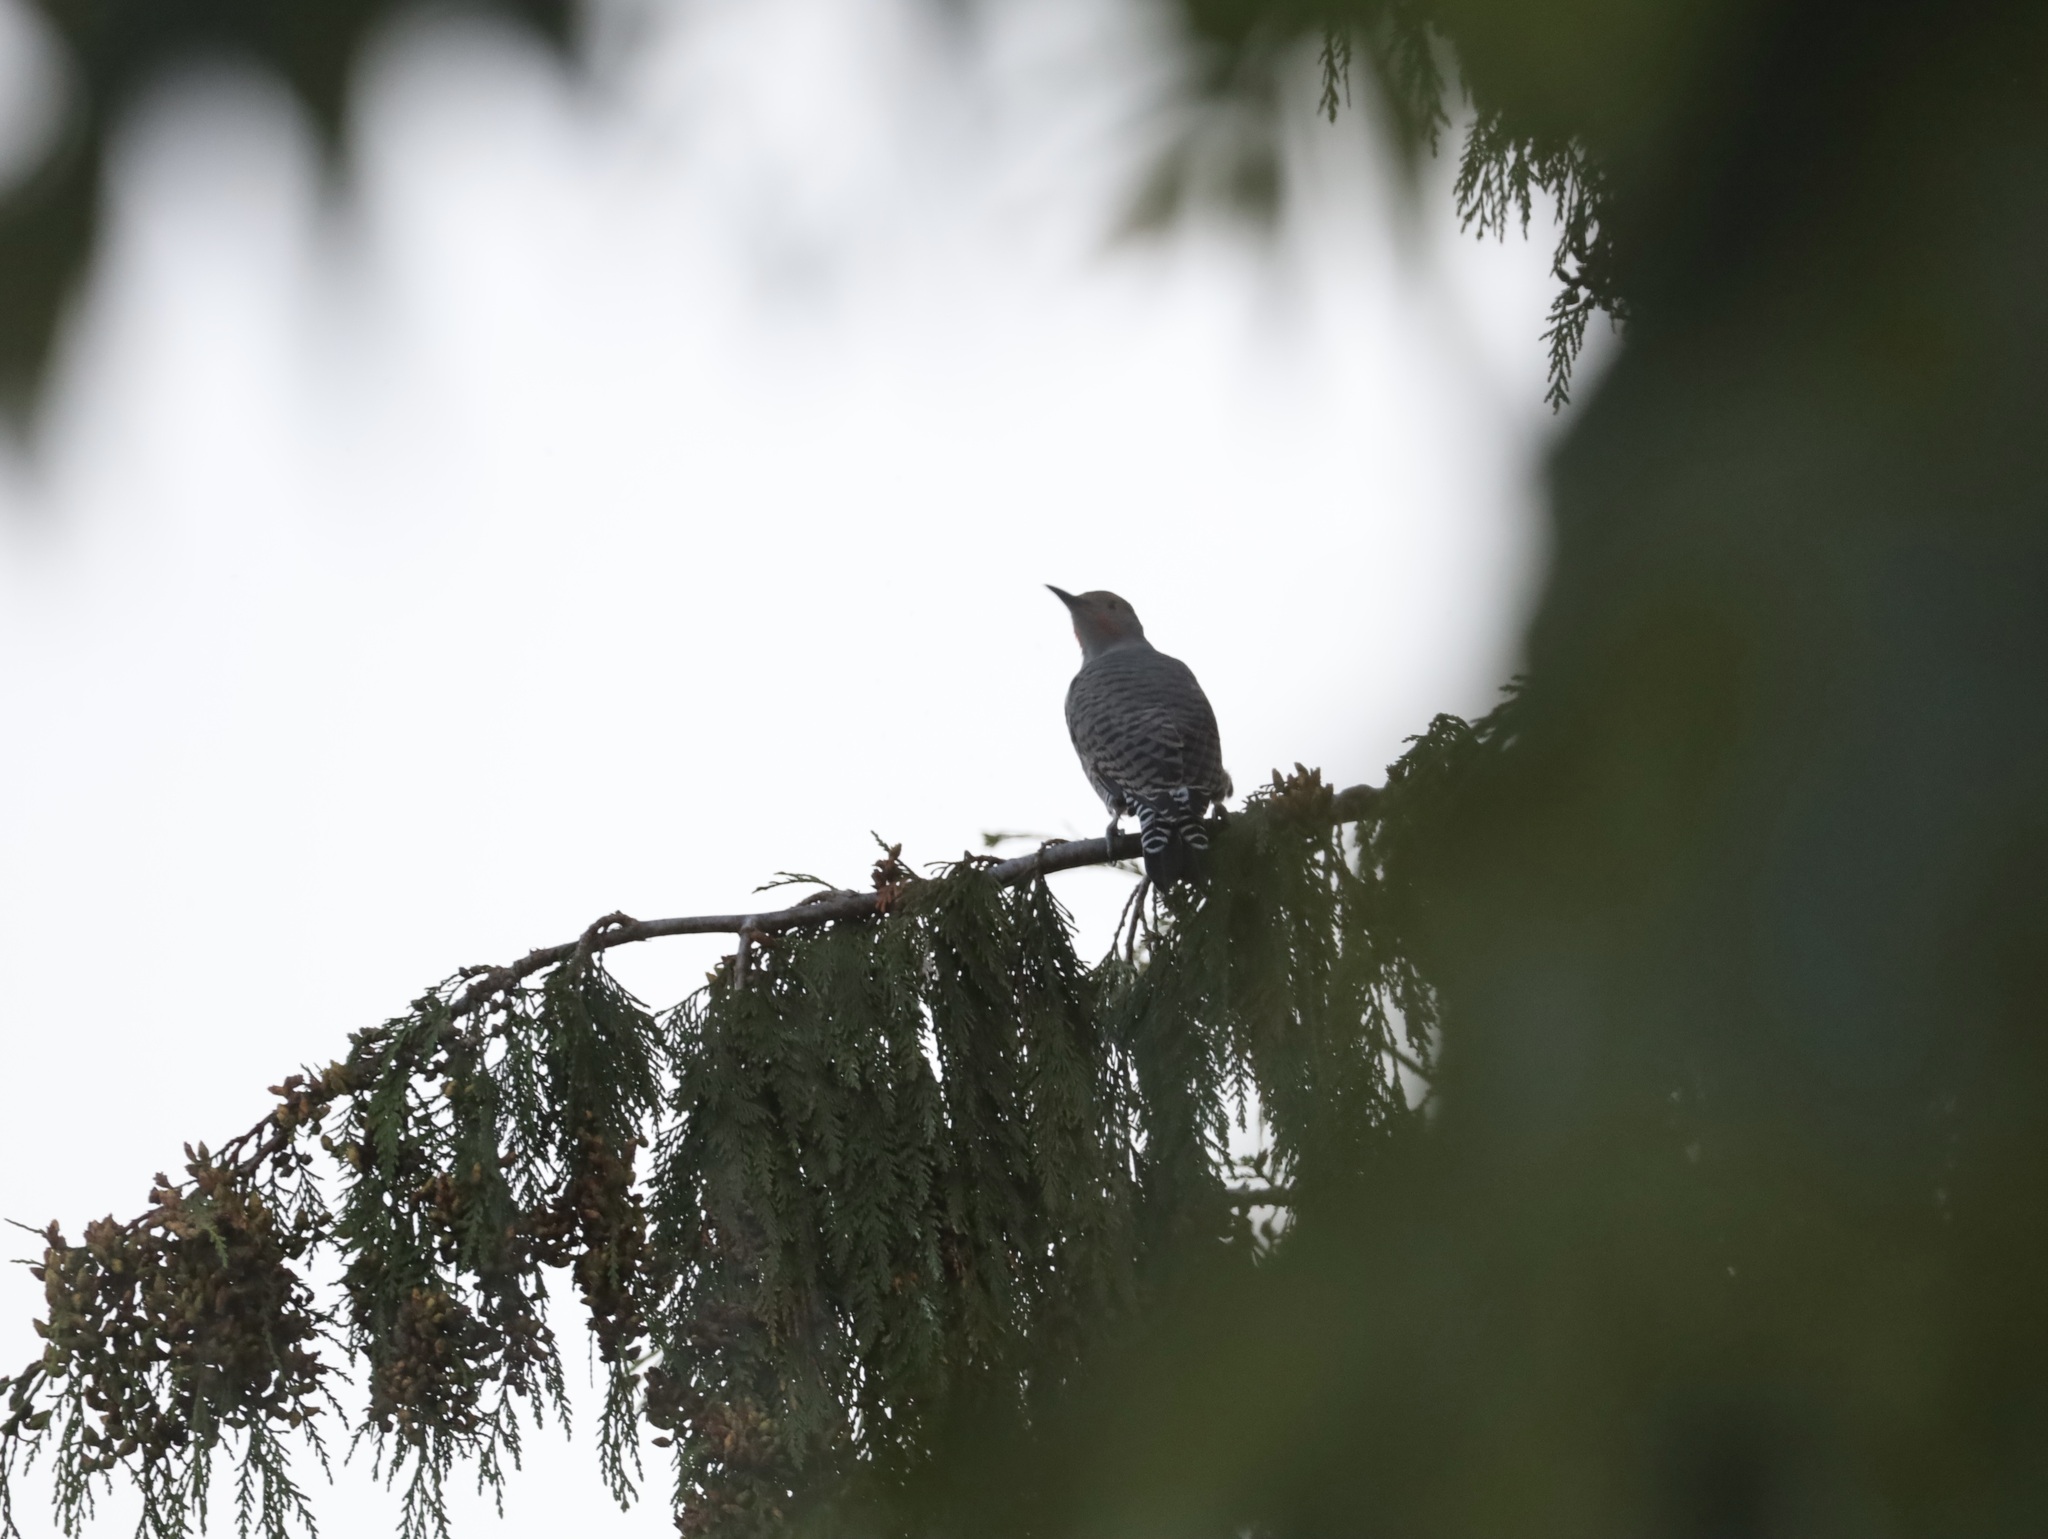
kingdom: Animalia
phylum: Chordata
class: Aves
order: Piciformes
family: Picidae
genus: Colaptes
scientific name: Colaptes auratus
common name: Northern flicker
